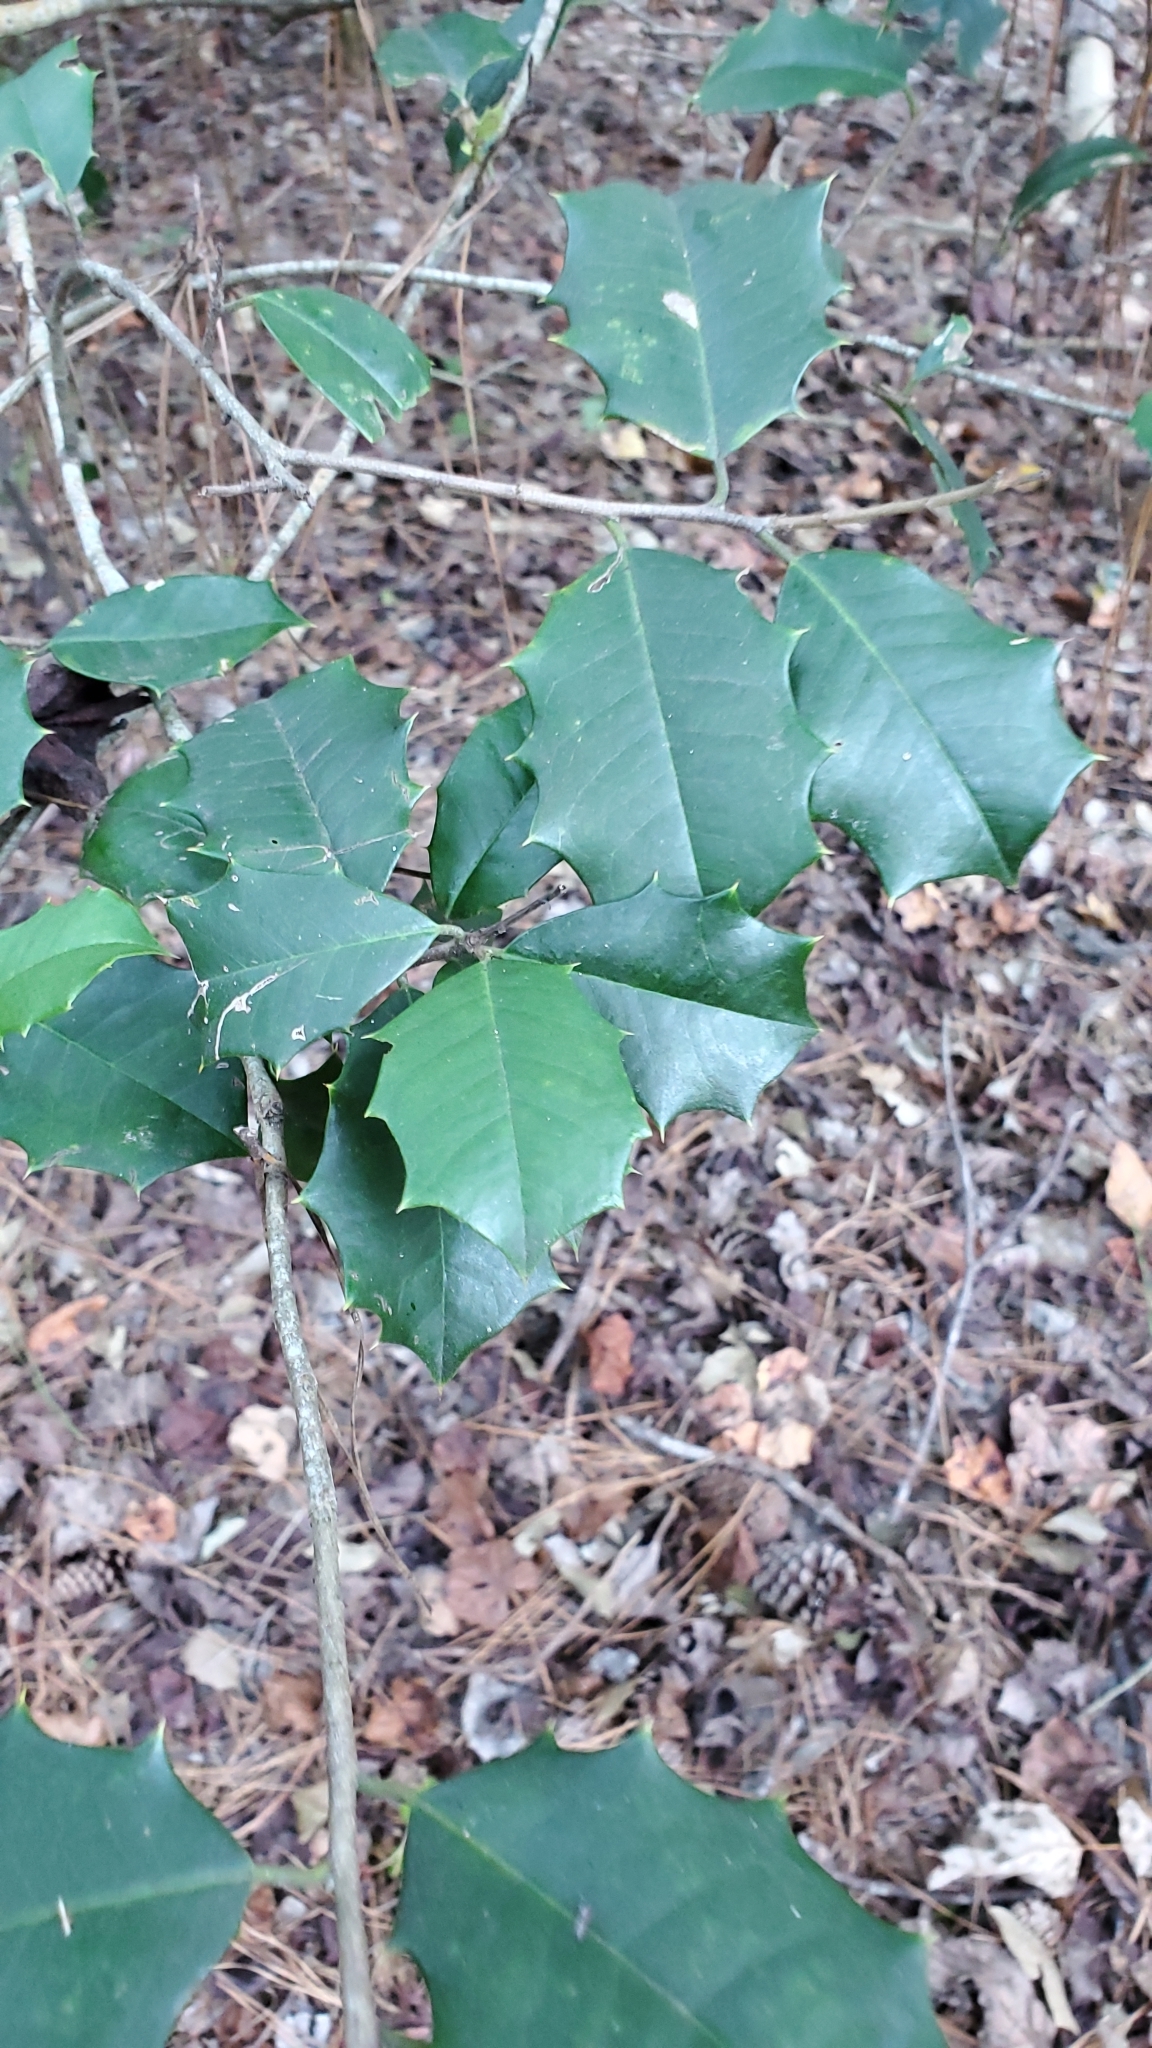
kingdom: Plantae
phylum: Tracheophyta
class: Magnoliopsida
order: Aquifoliales
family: Aquifoliaceae
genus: Ilex
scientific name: Ilex opaca
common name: American holly
